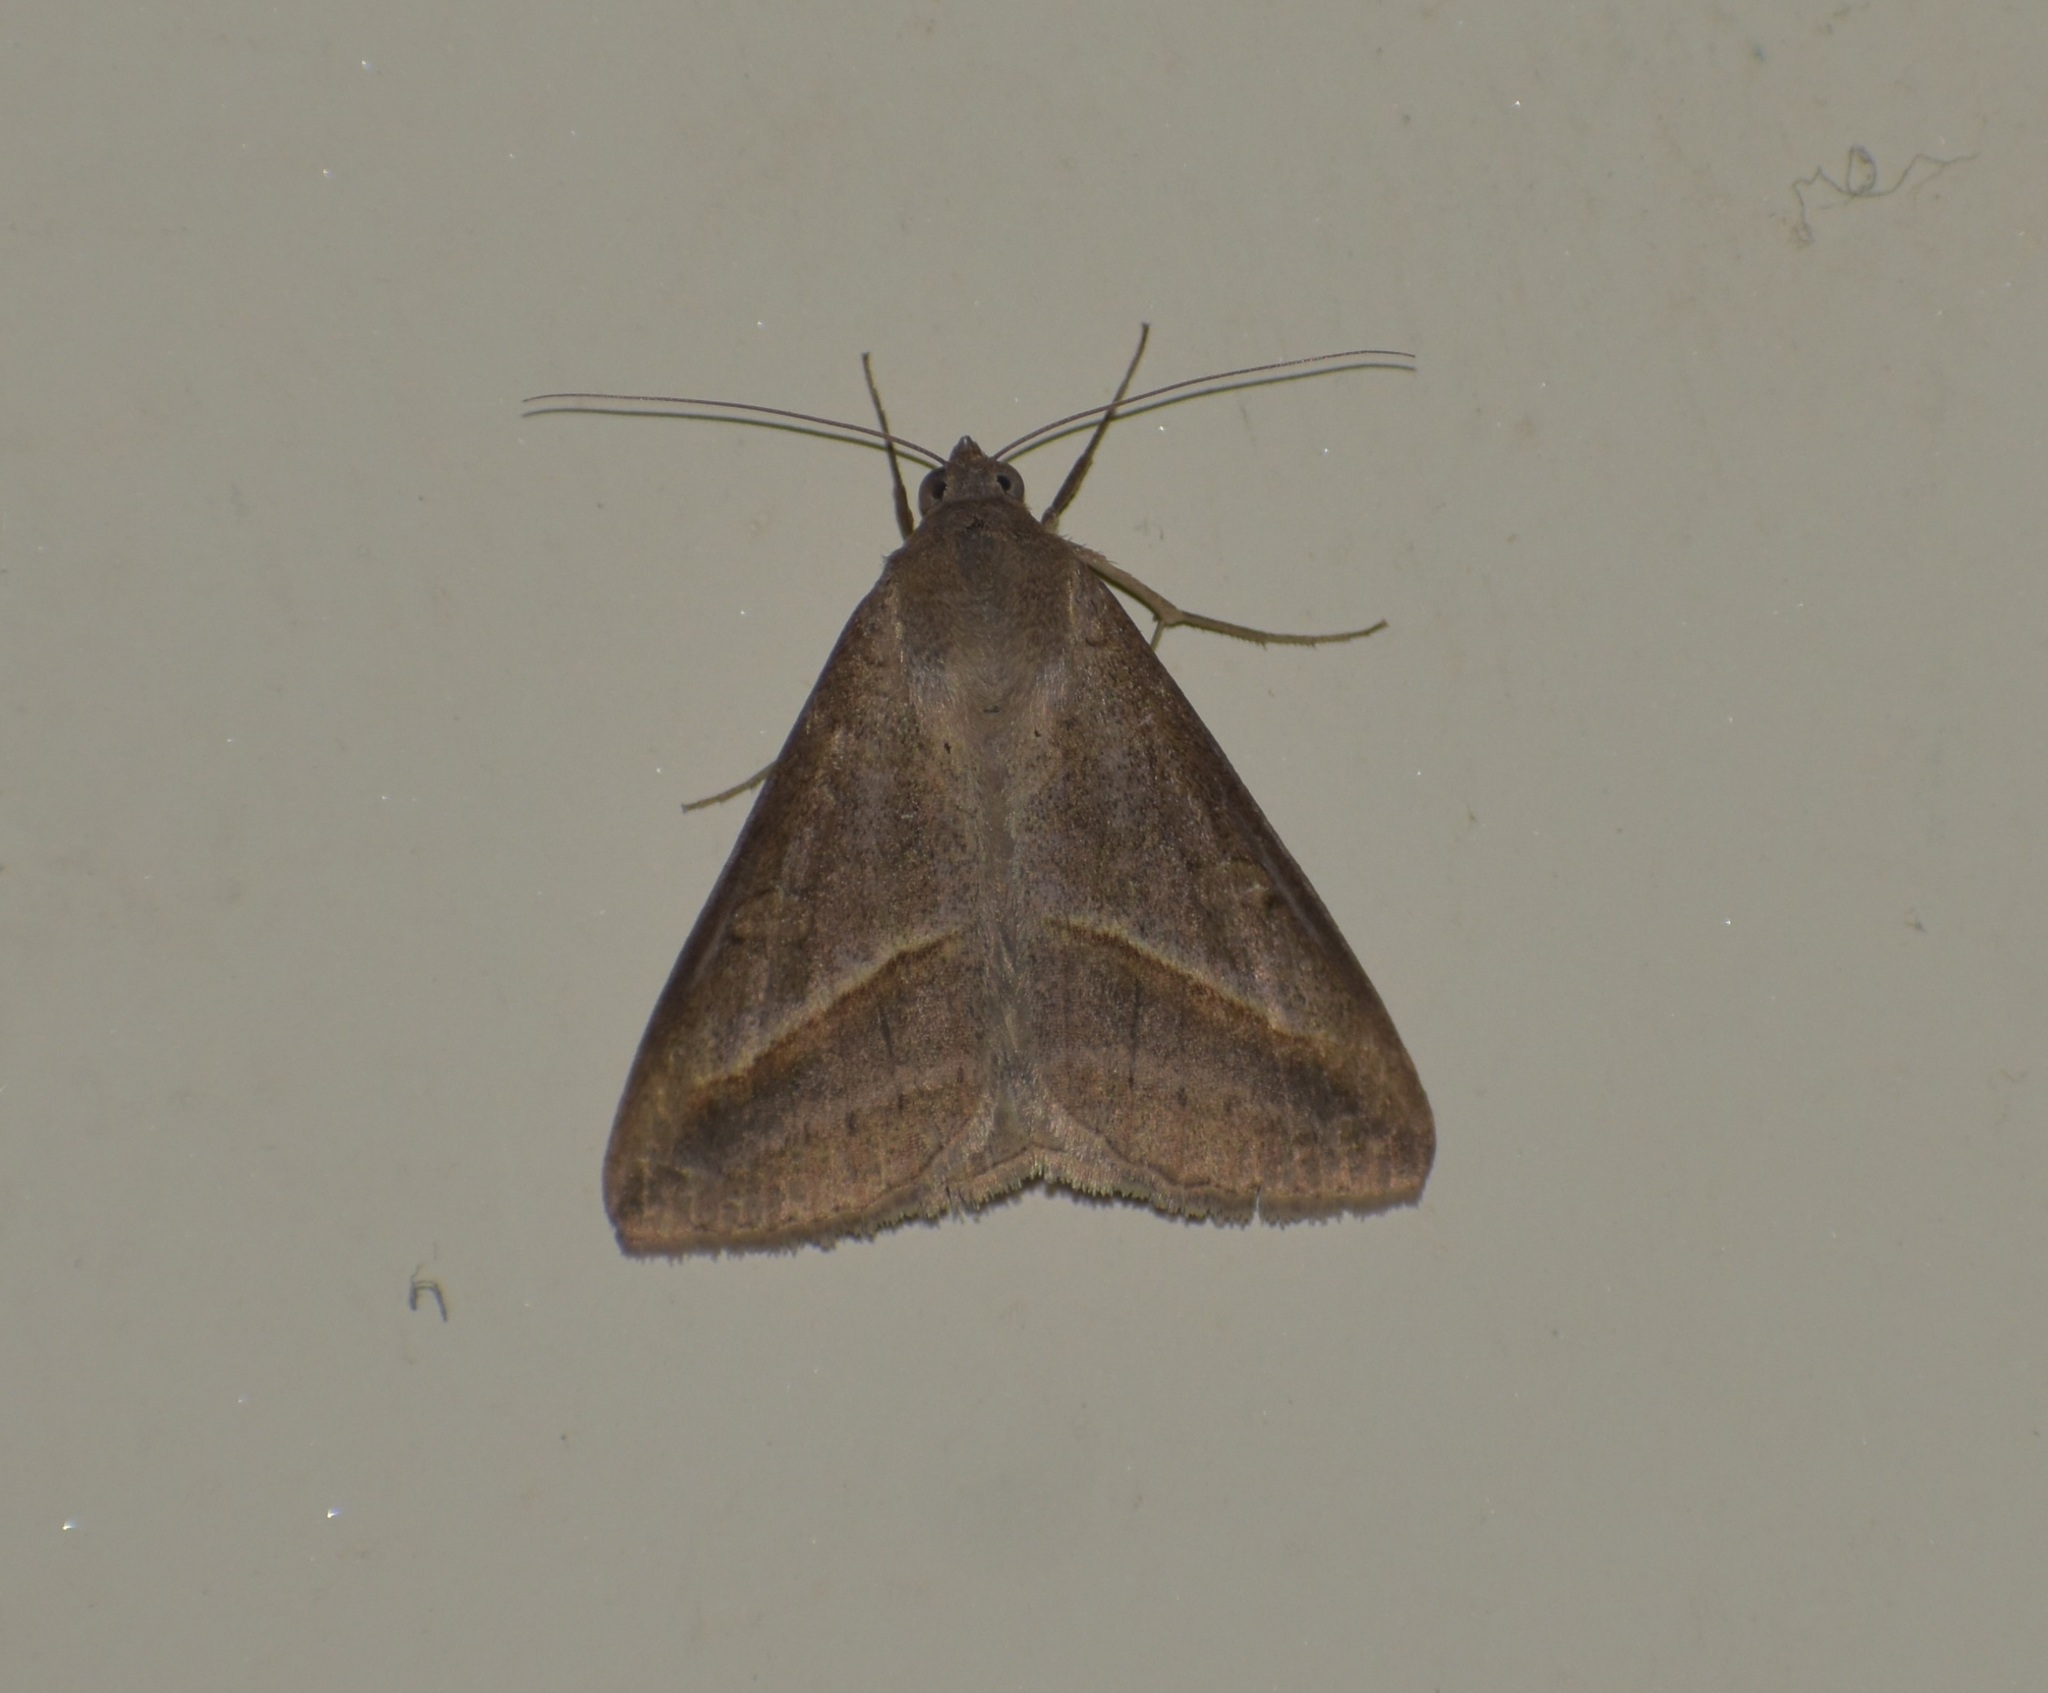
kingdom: Animalia
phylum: Arthropoda
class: Insecta
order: Lepidoptera
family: Erebidae
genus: Mocis
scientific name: Mocis frugalis
